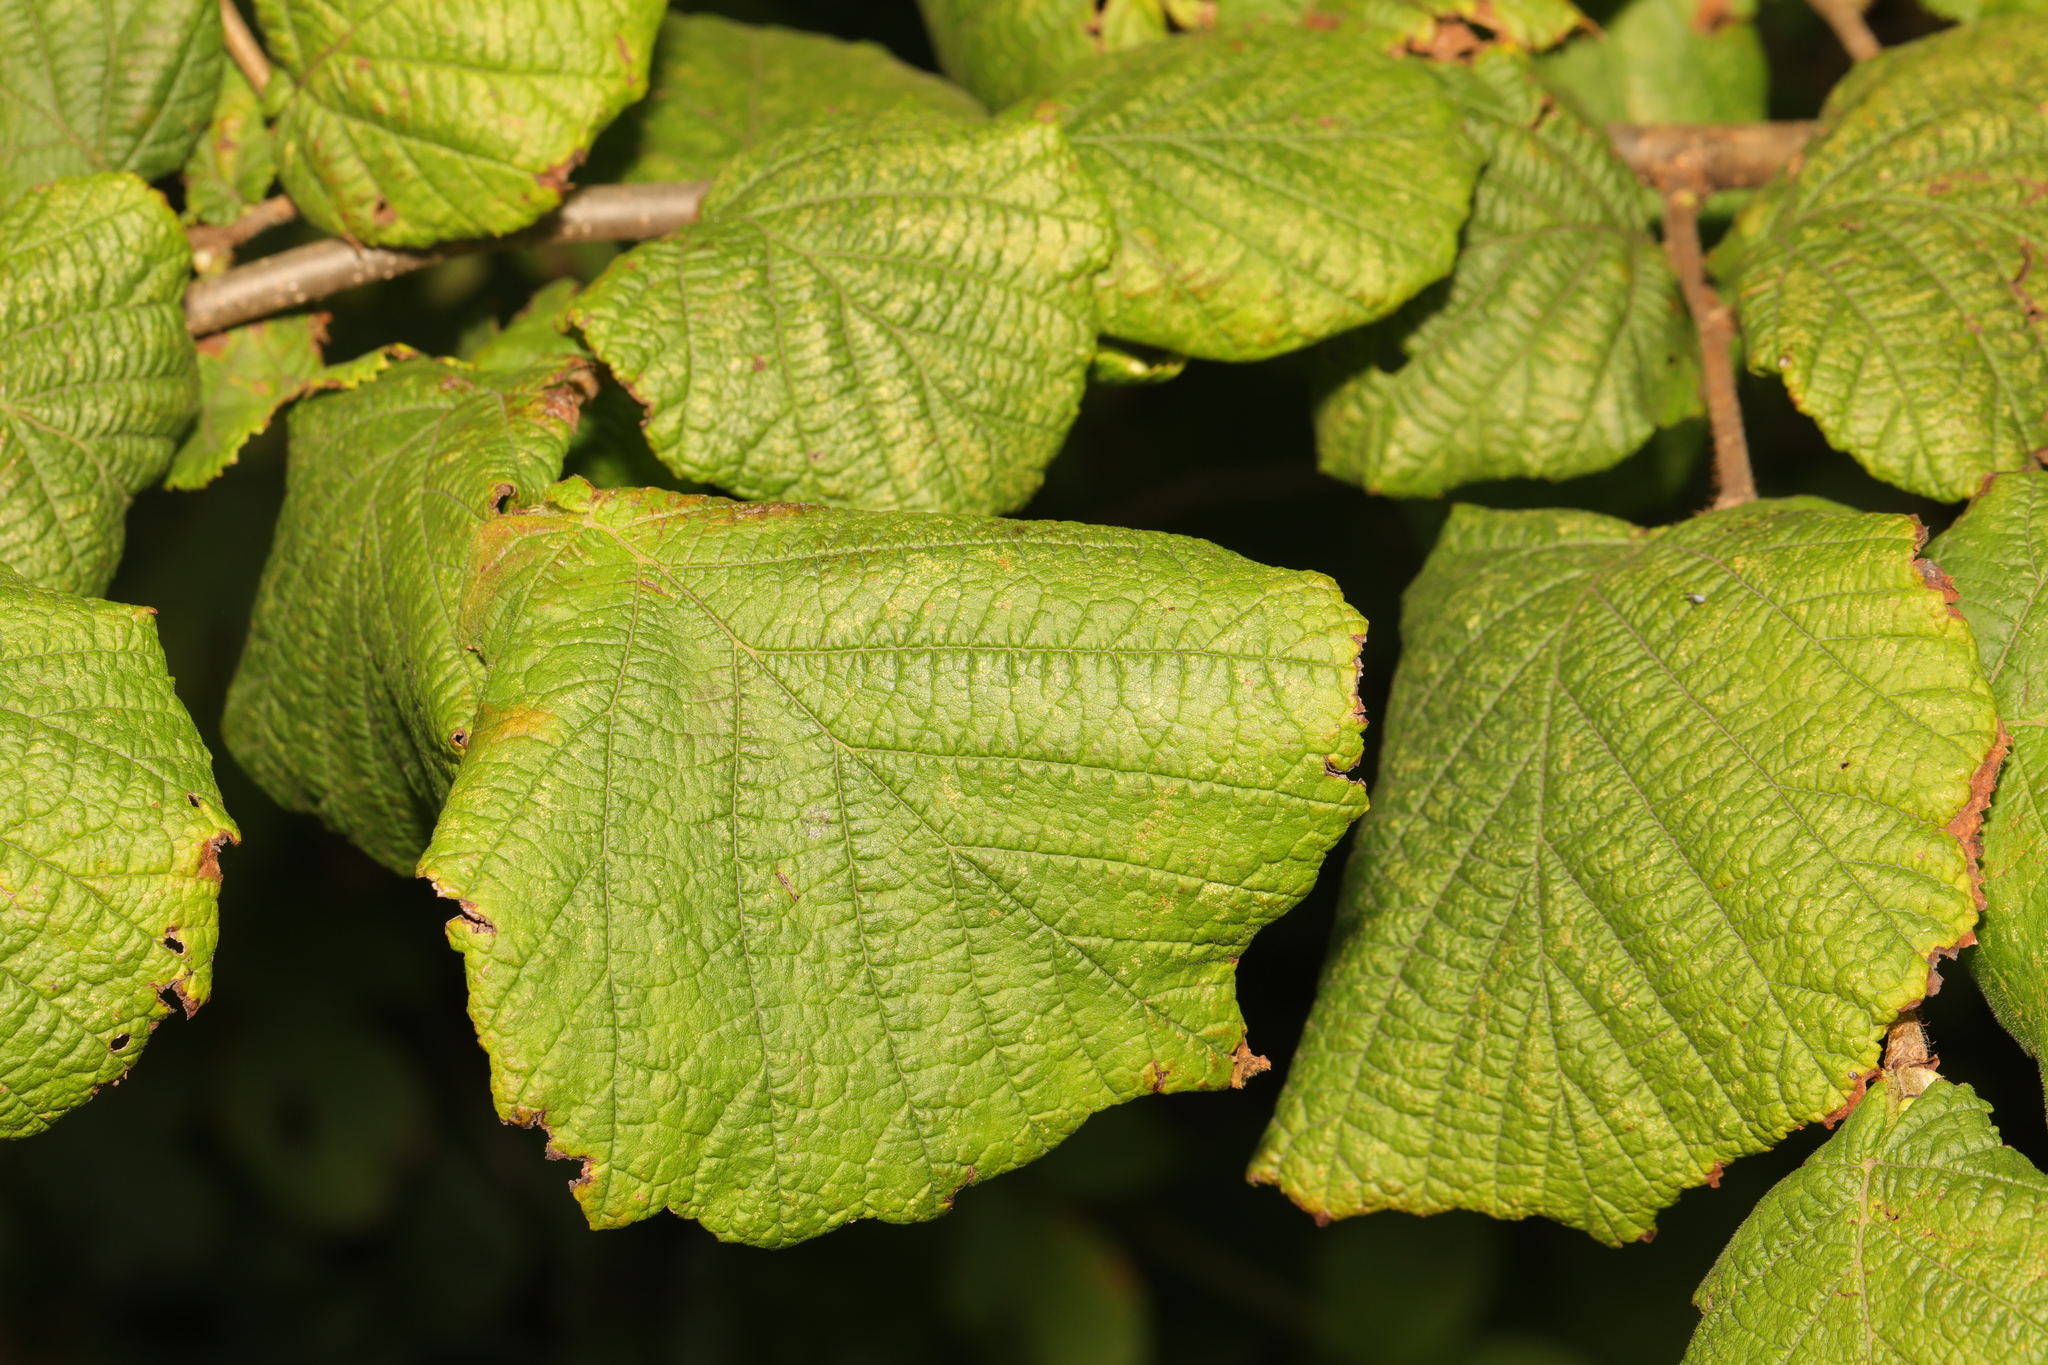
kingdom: Plantae
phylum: Tracheophyta
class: Magnoliopsida
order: Fagales
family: Betulaceae
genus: Corylus
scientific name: Corylus avellana
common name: European hazel
